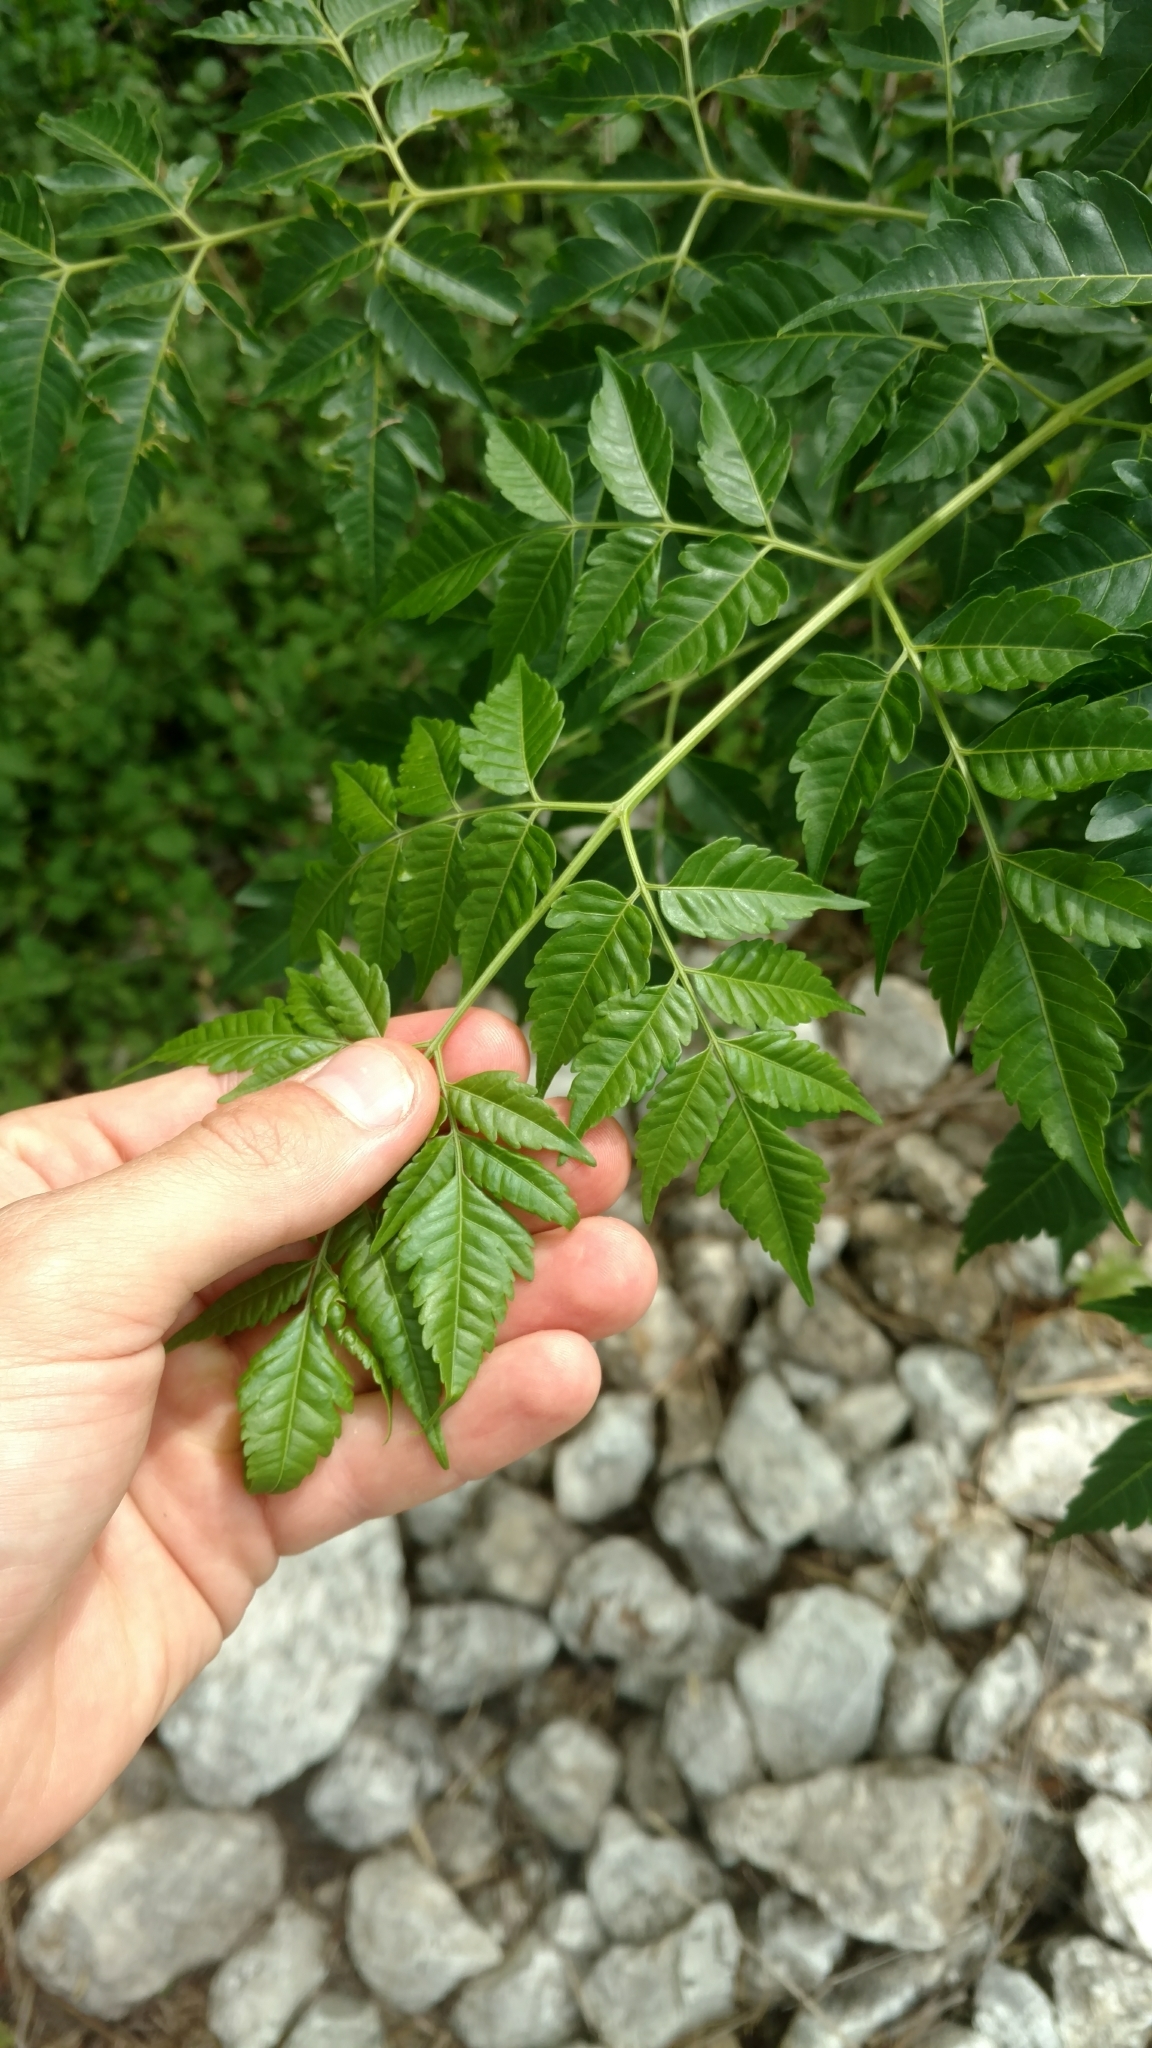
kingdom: Plantae
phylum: Tracheophyta
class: Magnoliopsida
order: Sapindales
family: Meliaceae
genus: Melia
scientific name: Melia azedarach
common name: Chinaberrytree
